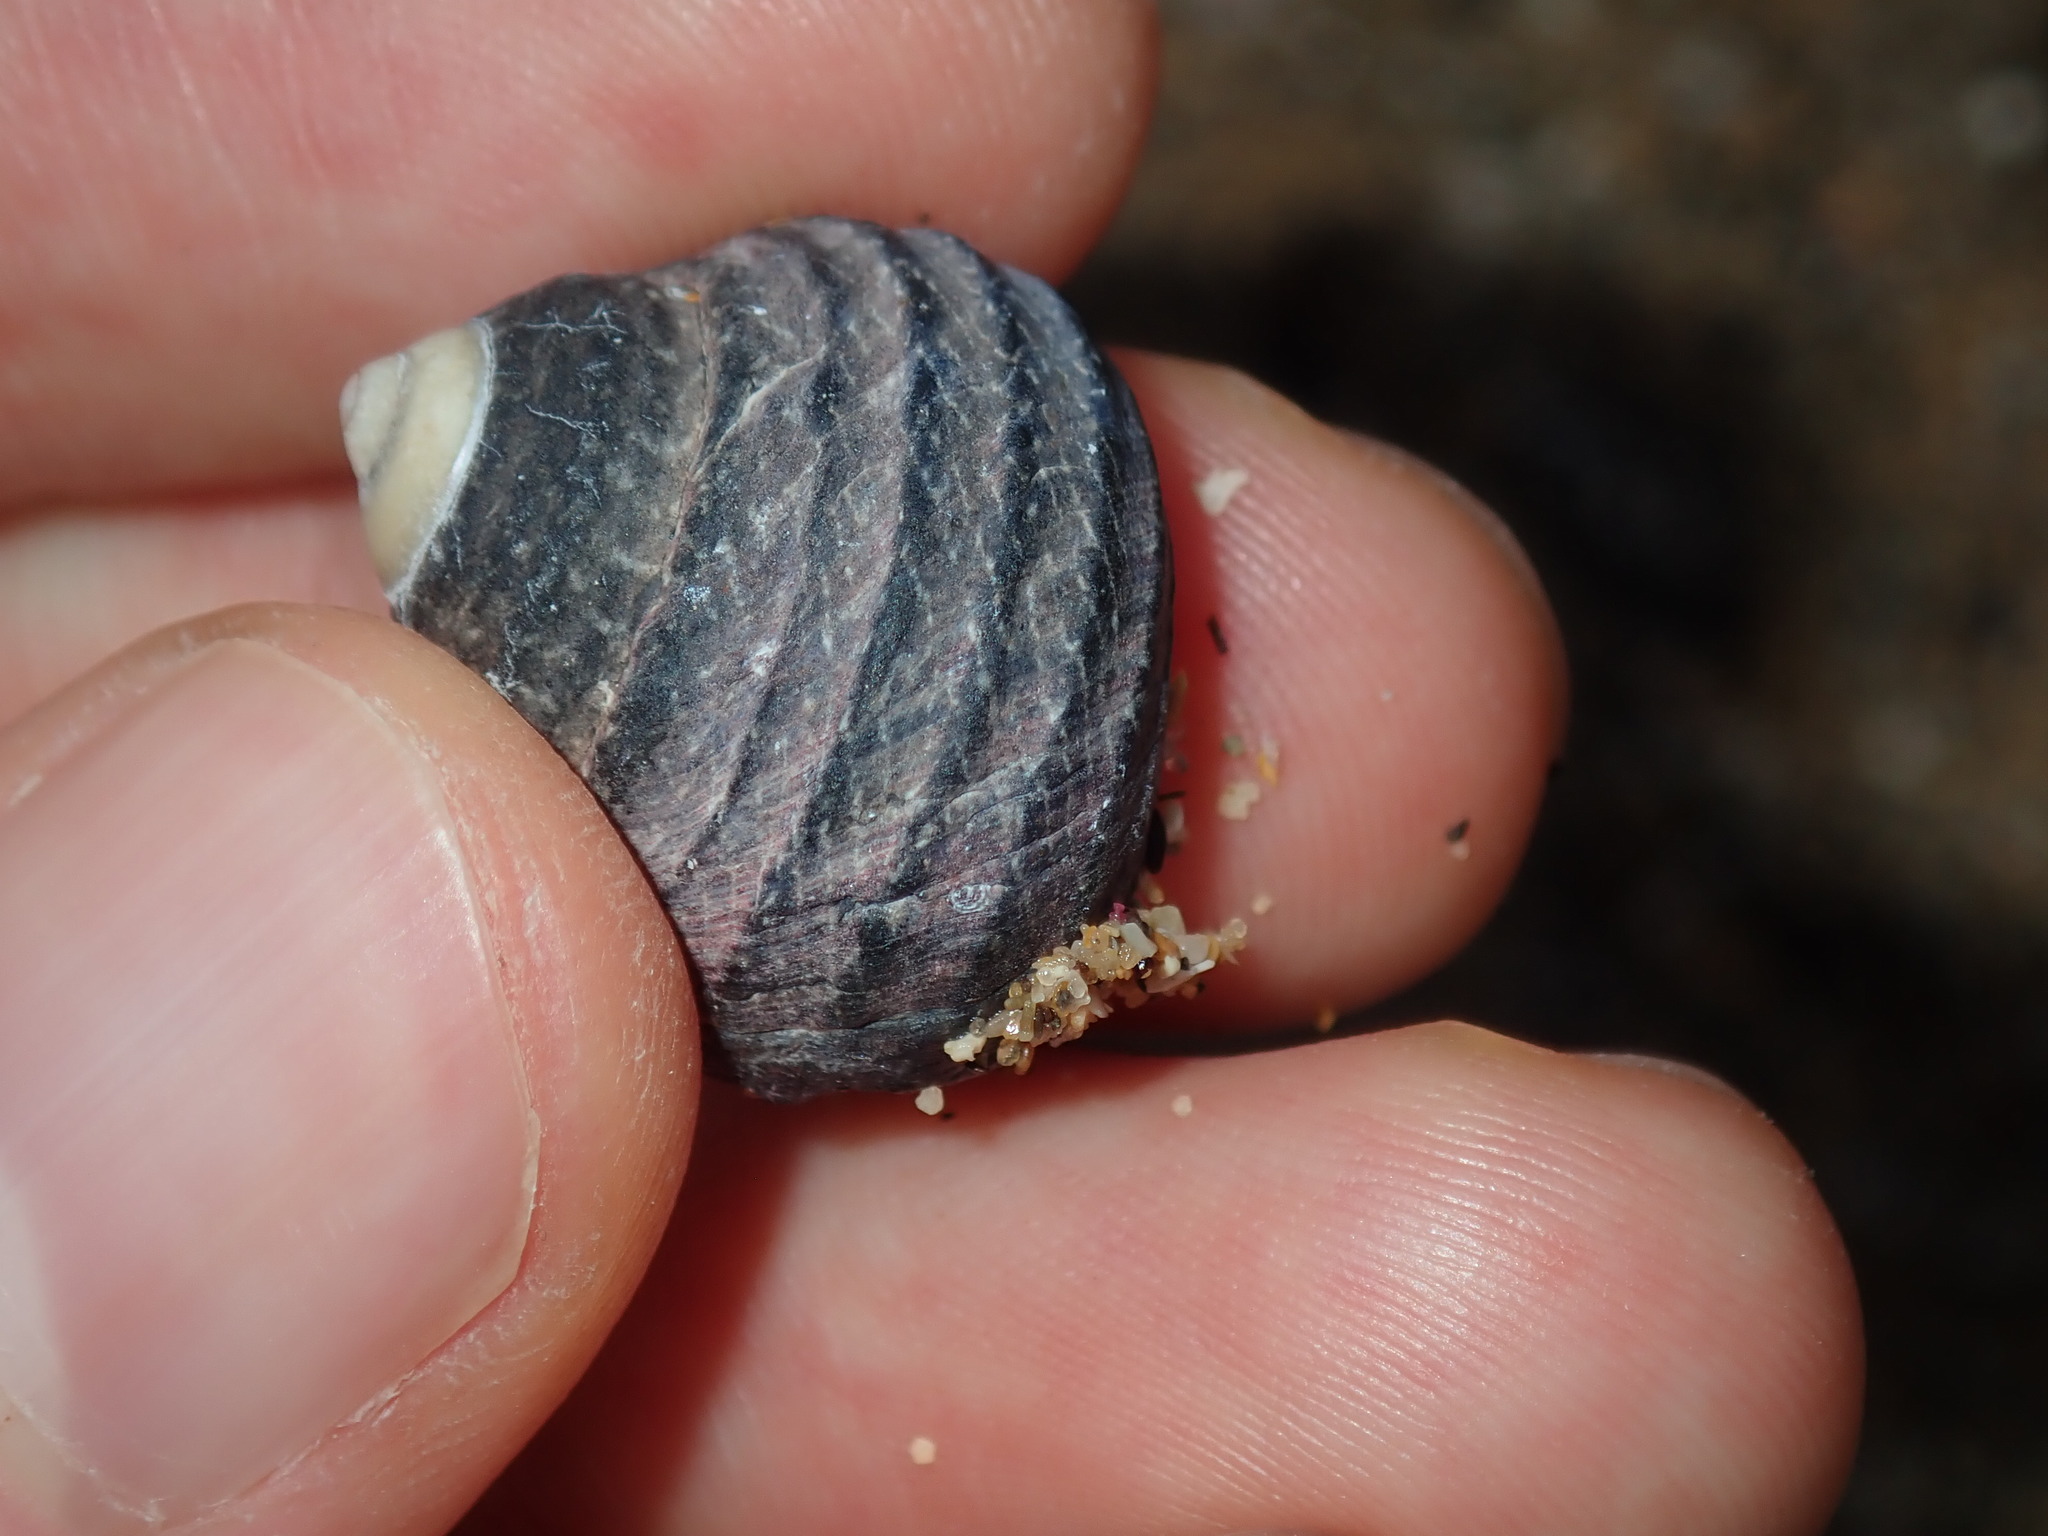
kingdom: Animalia
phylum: Mollusca
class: Gastropoda
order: Trochida
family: Trochidae
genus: Austrocochlea
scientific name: Austrocochlea constricta
